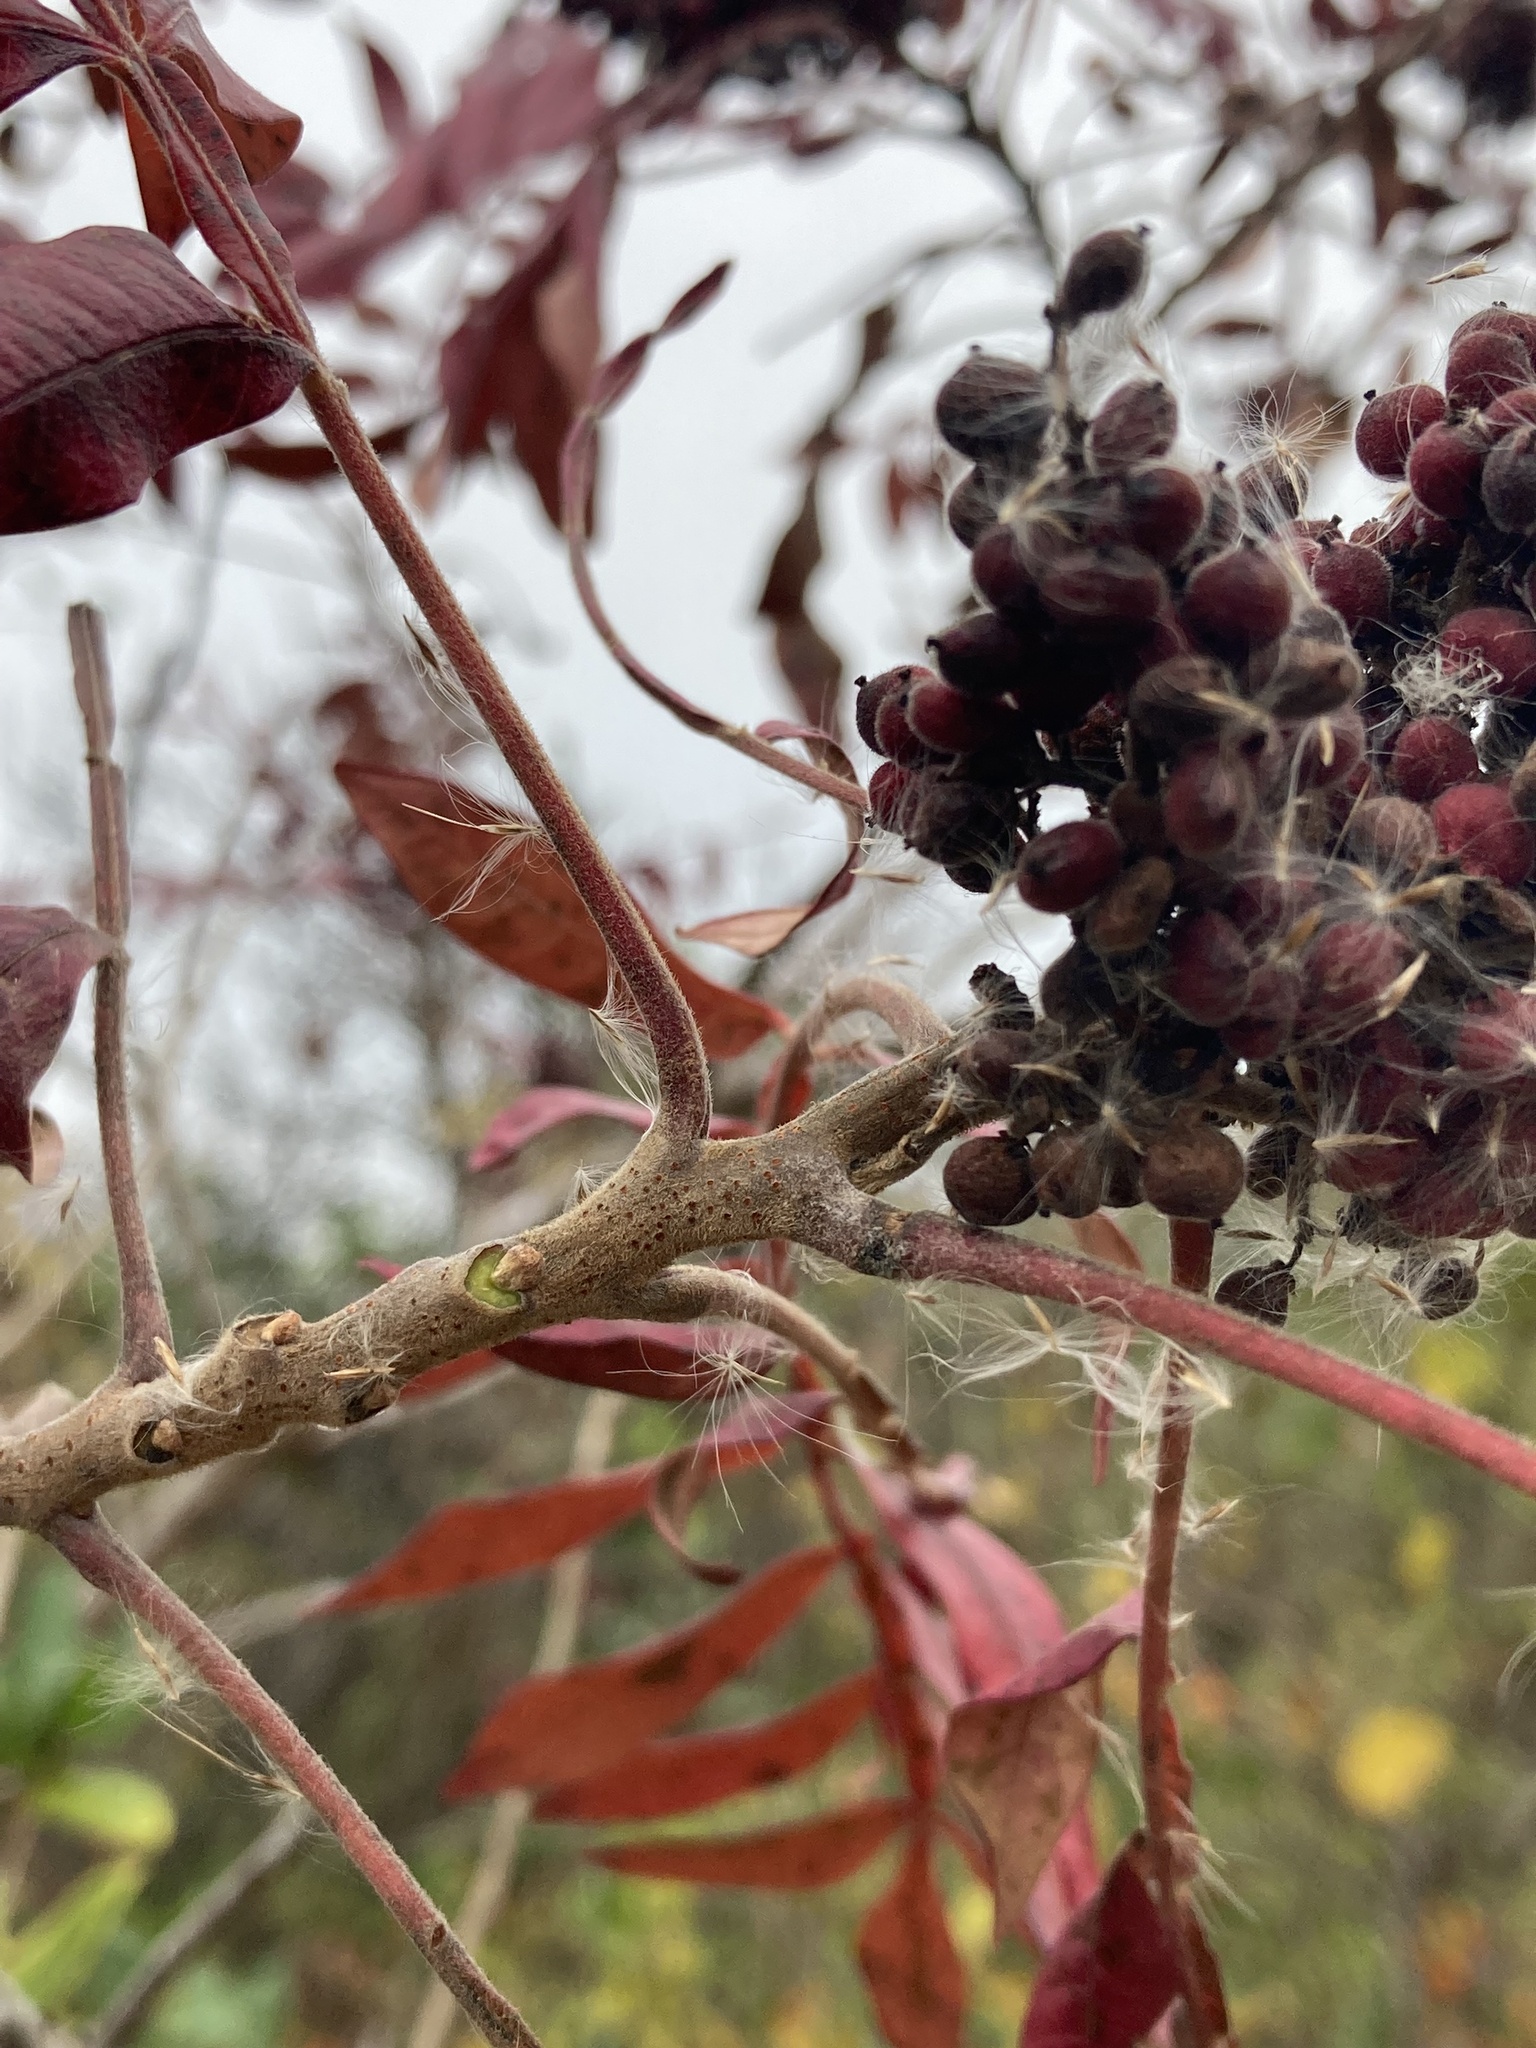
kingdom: Plantae
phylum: Tracheophyta
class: Magnoliopsida
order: Sapindales
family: Anacardiaceae
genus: Rhus
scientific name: Rhus copallina
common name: Shining sumac
